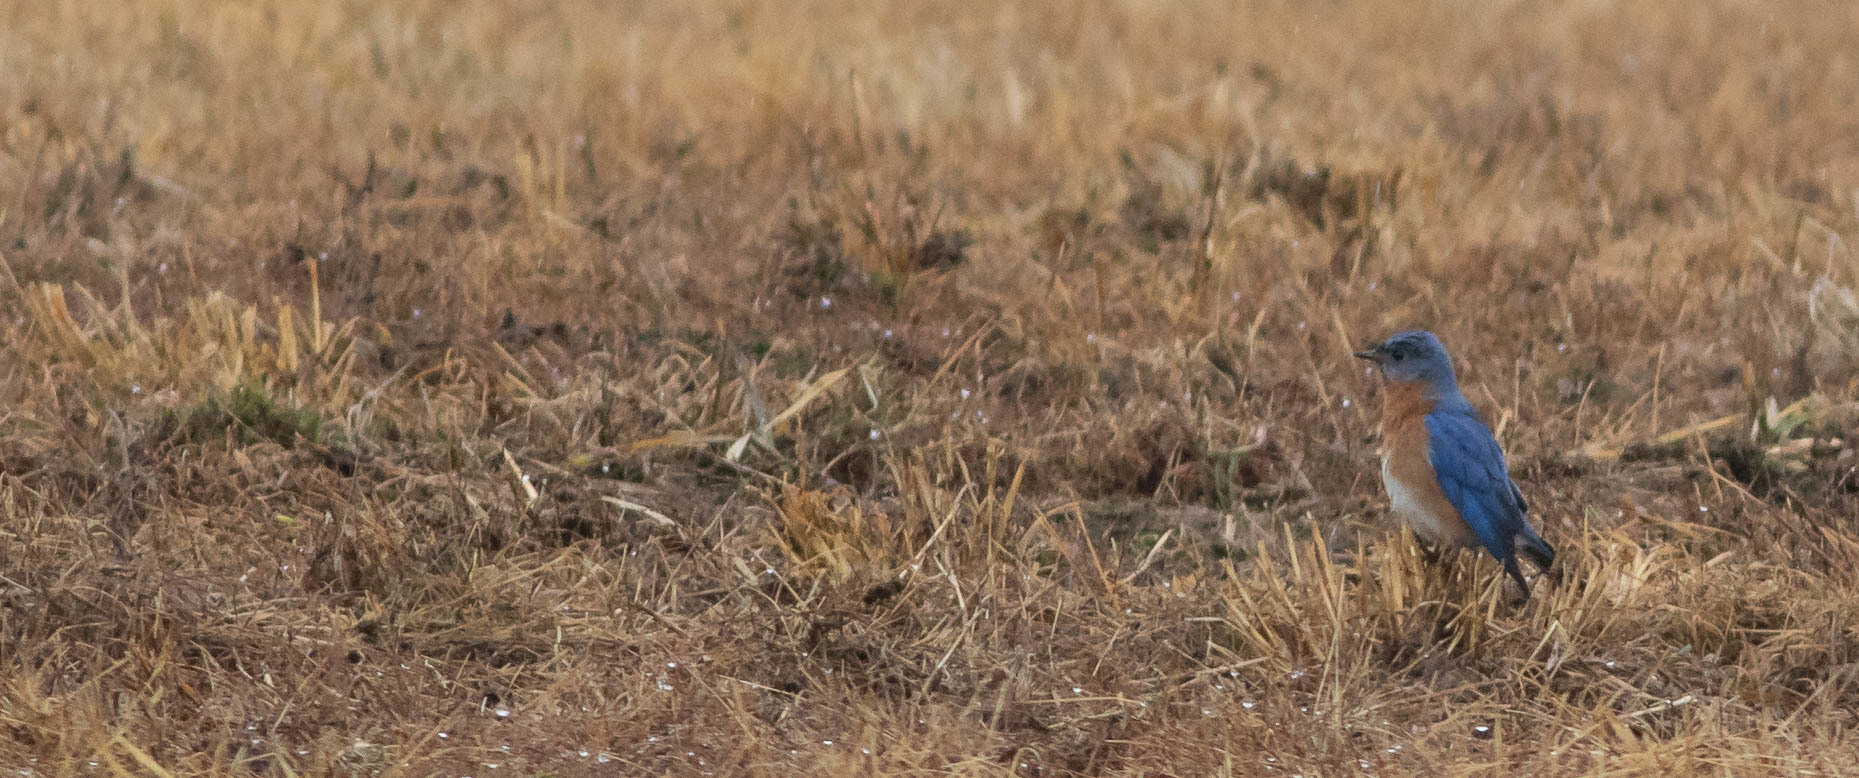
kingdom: Animalia
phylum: Chordata
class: Aves
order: Passeriformes
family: Turdidae
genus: Sialia
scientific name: Sialia sialis
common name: Eastern bluebird
